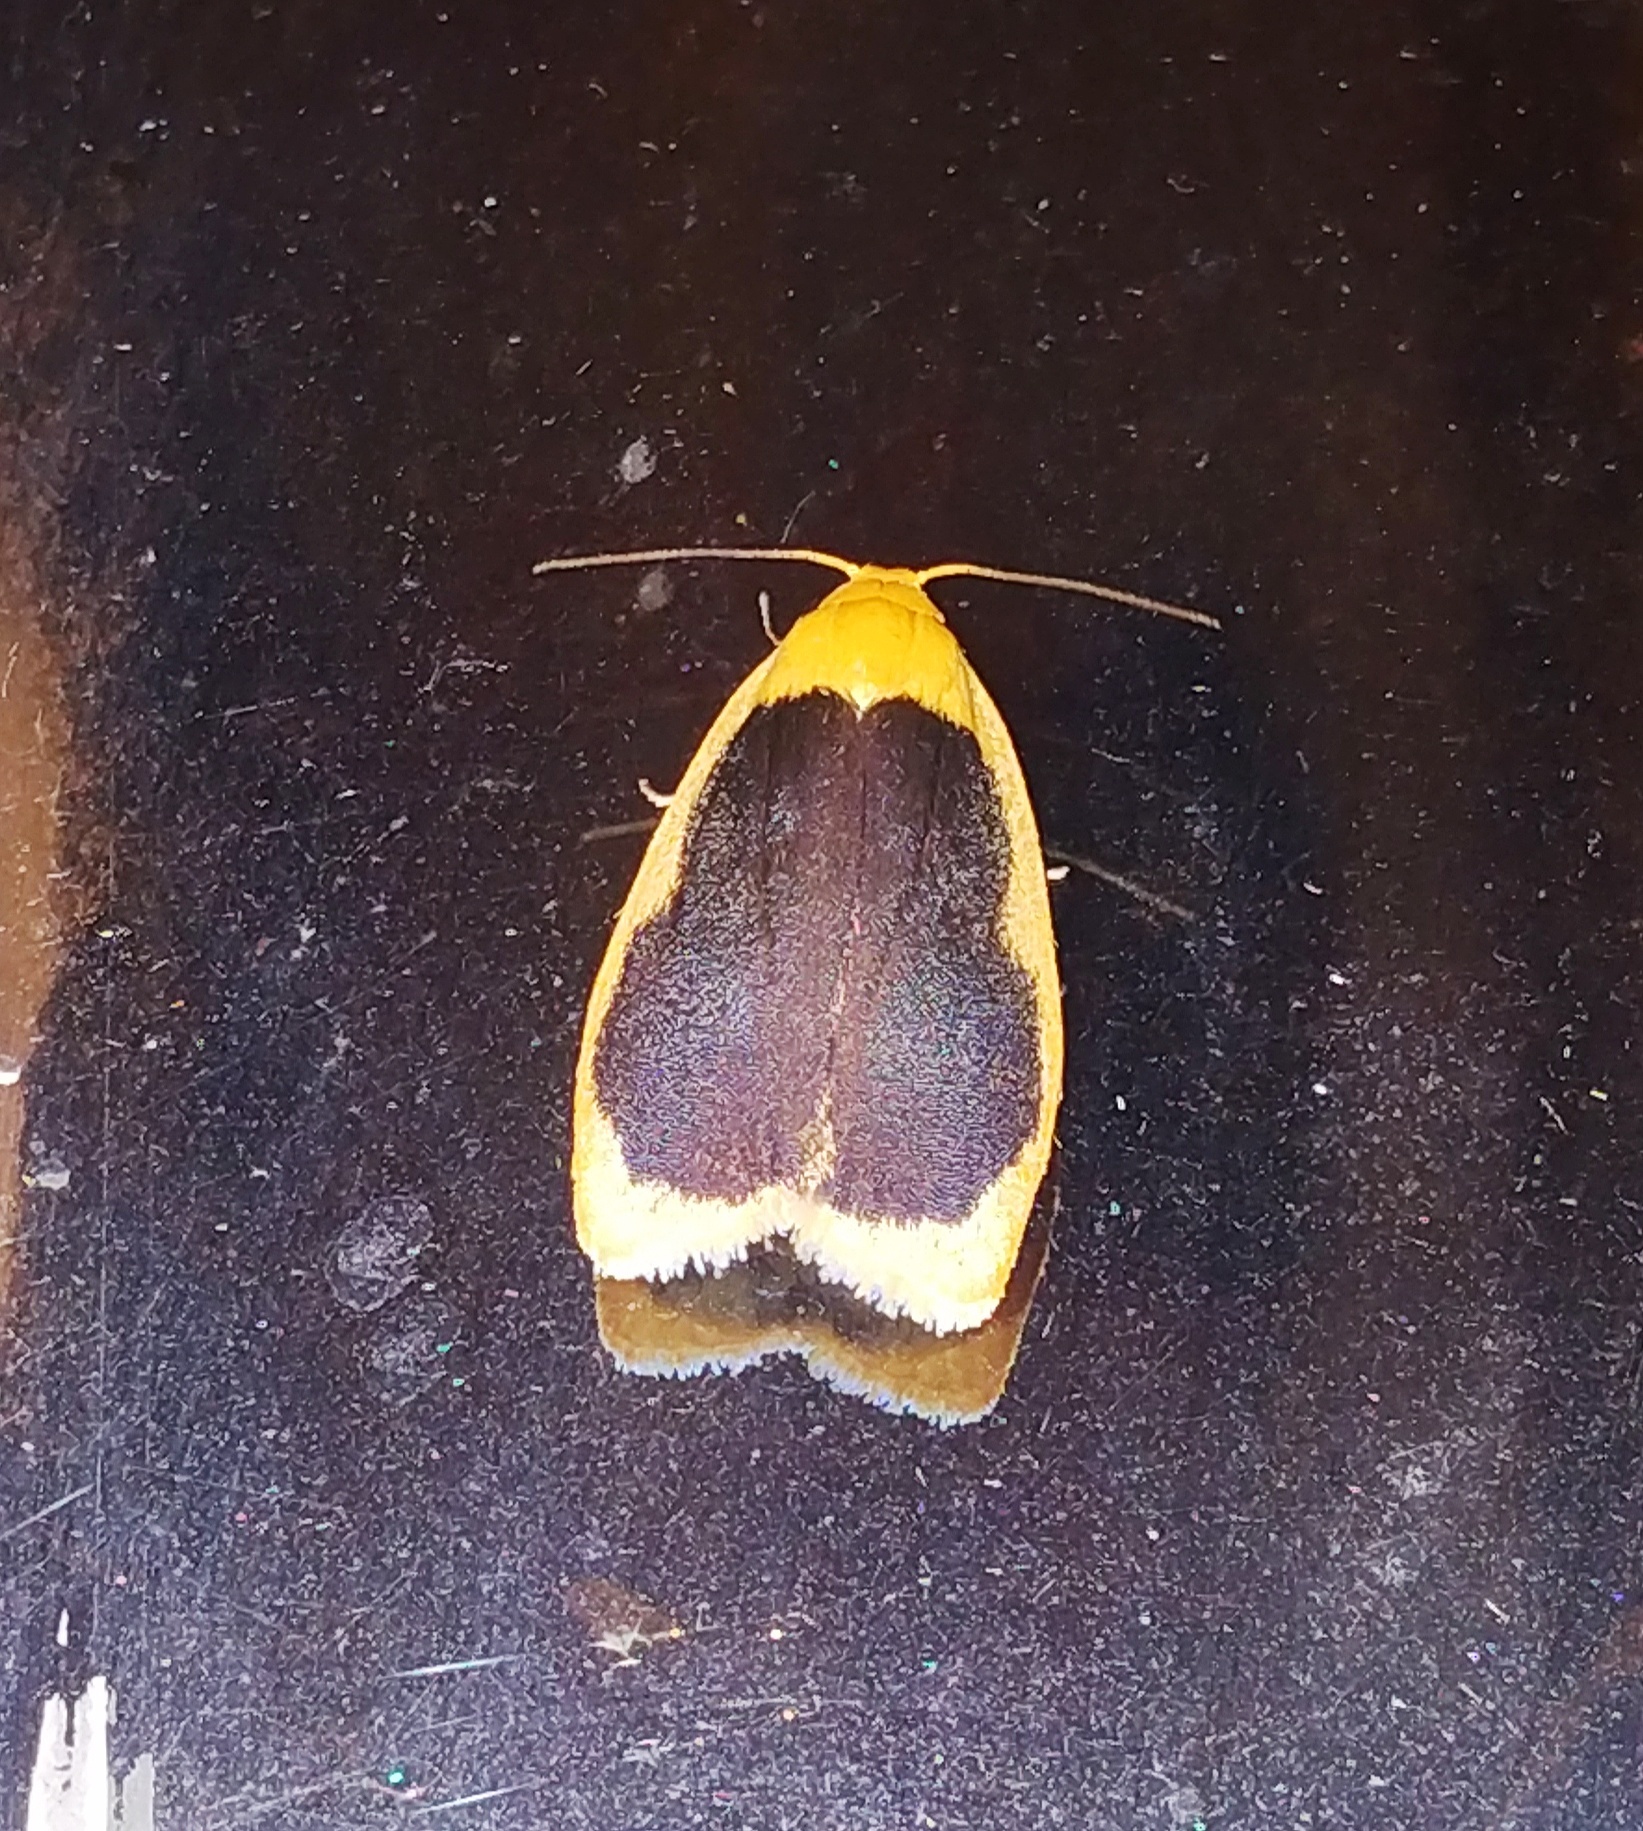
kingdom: Animalia
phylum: Arthropoda
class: Insecta
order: Lepidoptera
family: Erebidae
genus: Pseudoblabes
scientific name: Pseudoblabes oophora
